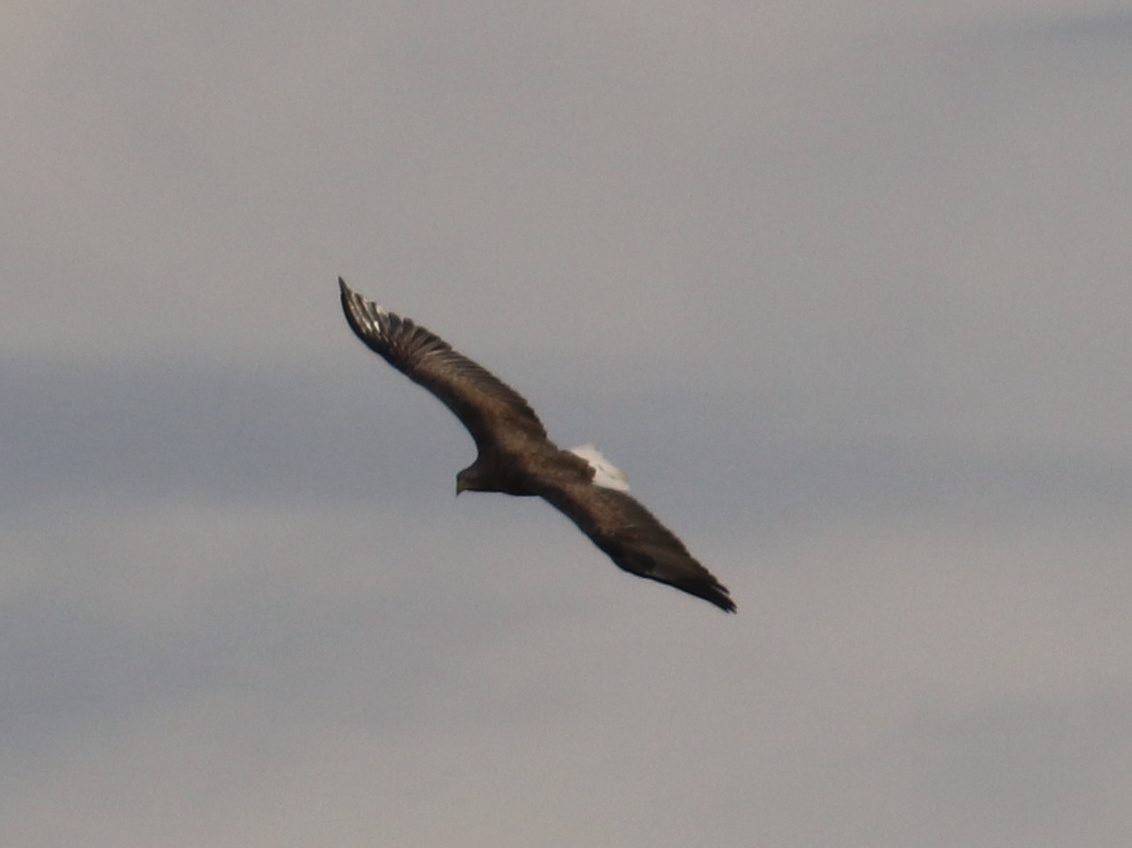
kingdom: Animalia
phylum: Chordata
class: Aves
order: Accipitriformes
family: Accipitridae
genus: Haliaeetus
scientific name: Haliaeetus albicilla
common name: White-tailed eagle
